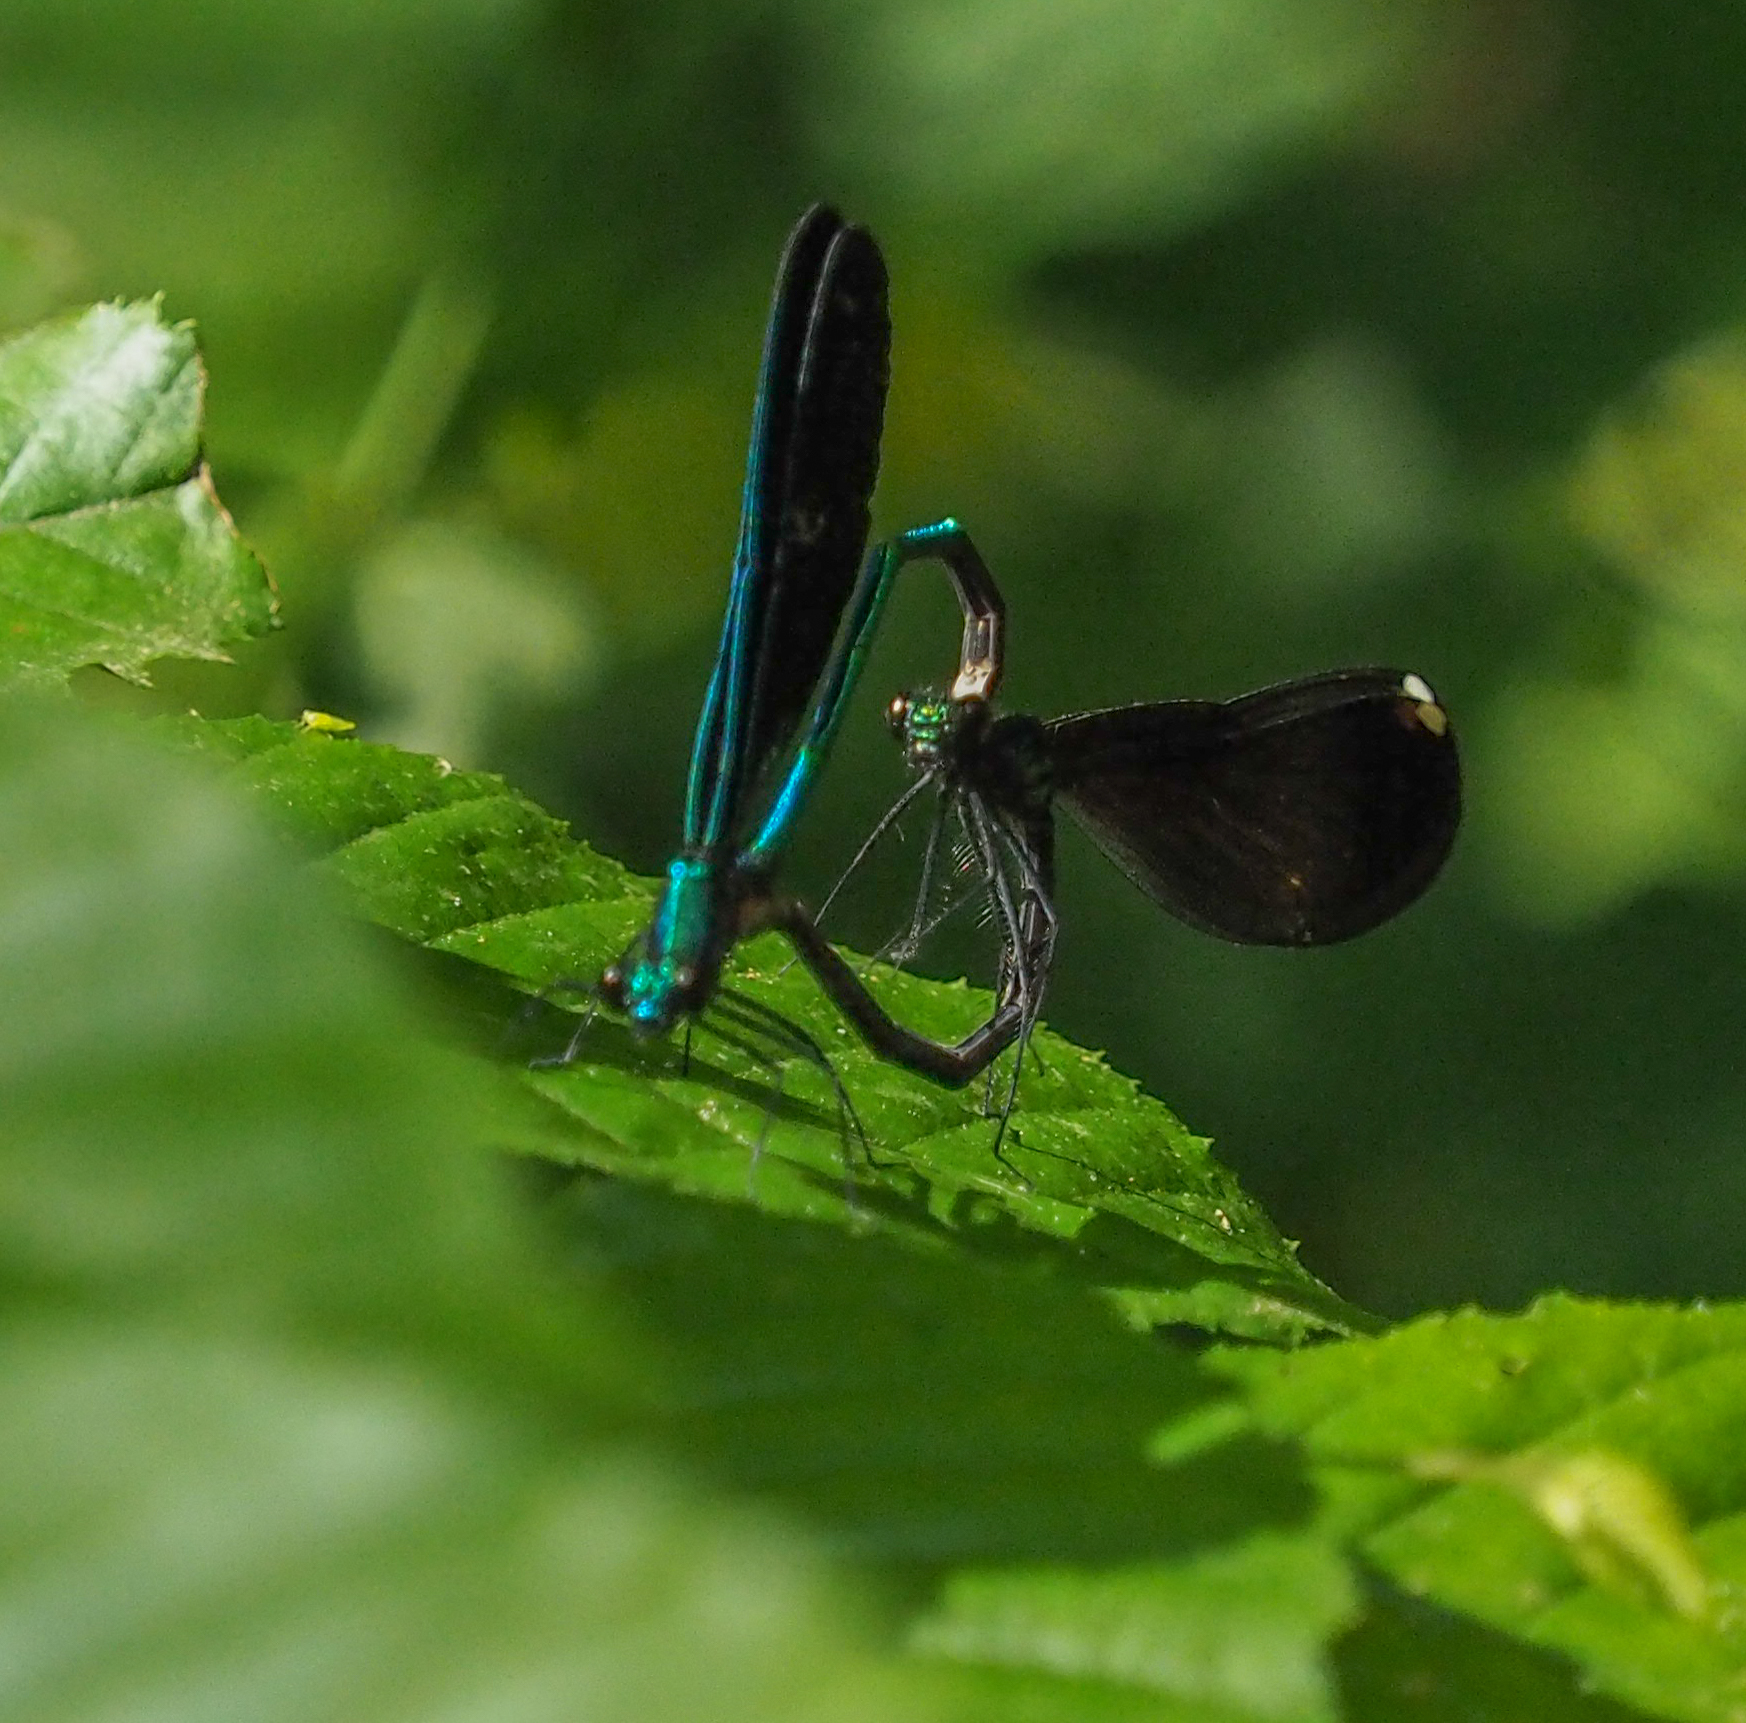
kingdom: Animalia
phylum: Arthropoda
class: Insecta
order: Odonata
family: Calopterygidae
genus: Calopteryx
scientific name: Calopteryx maculata
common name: Ebony jewelwing
